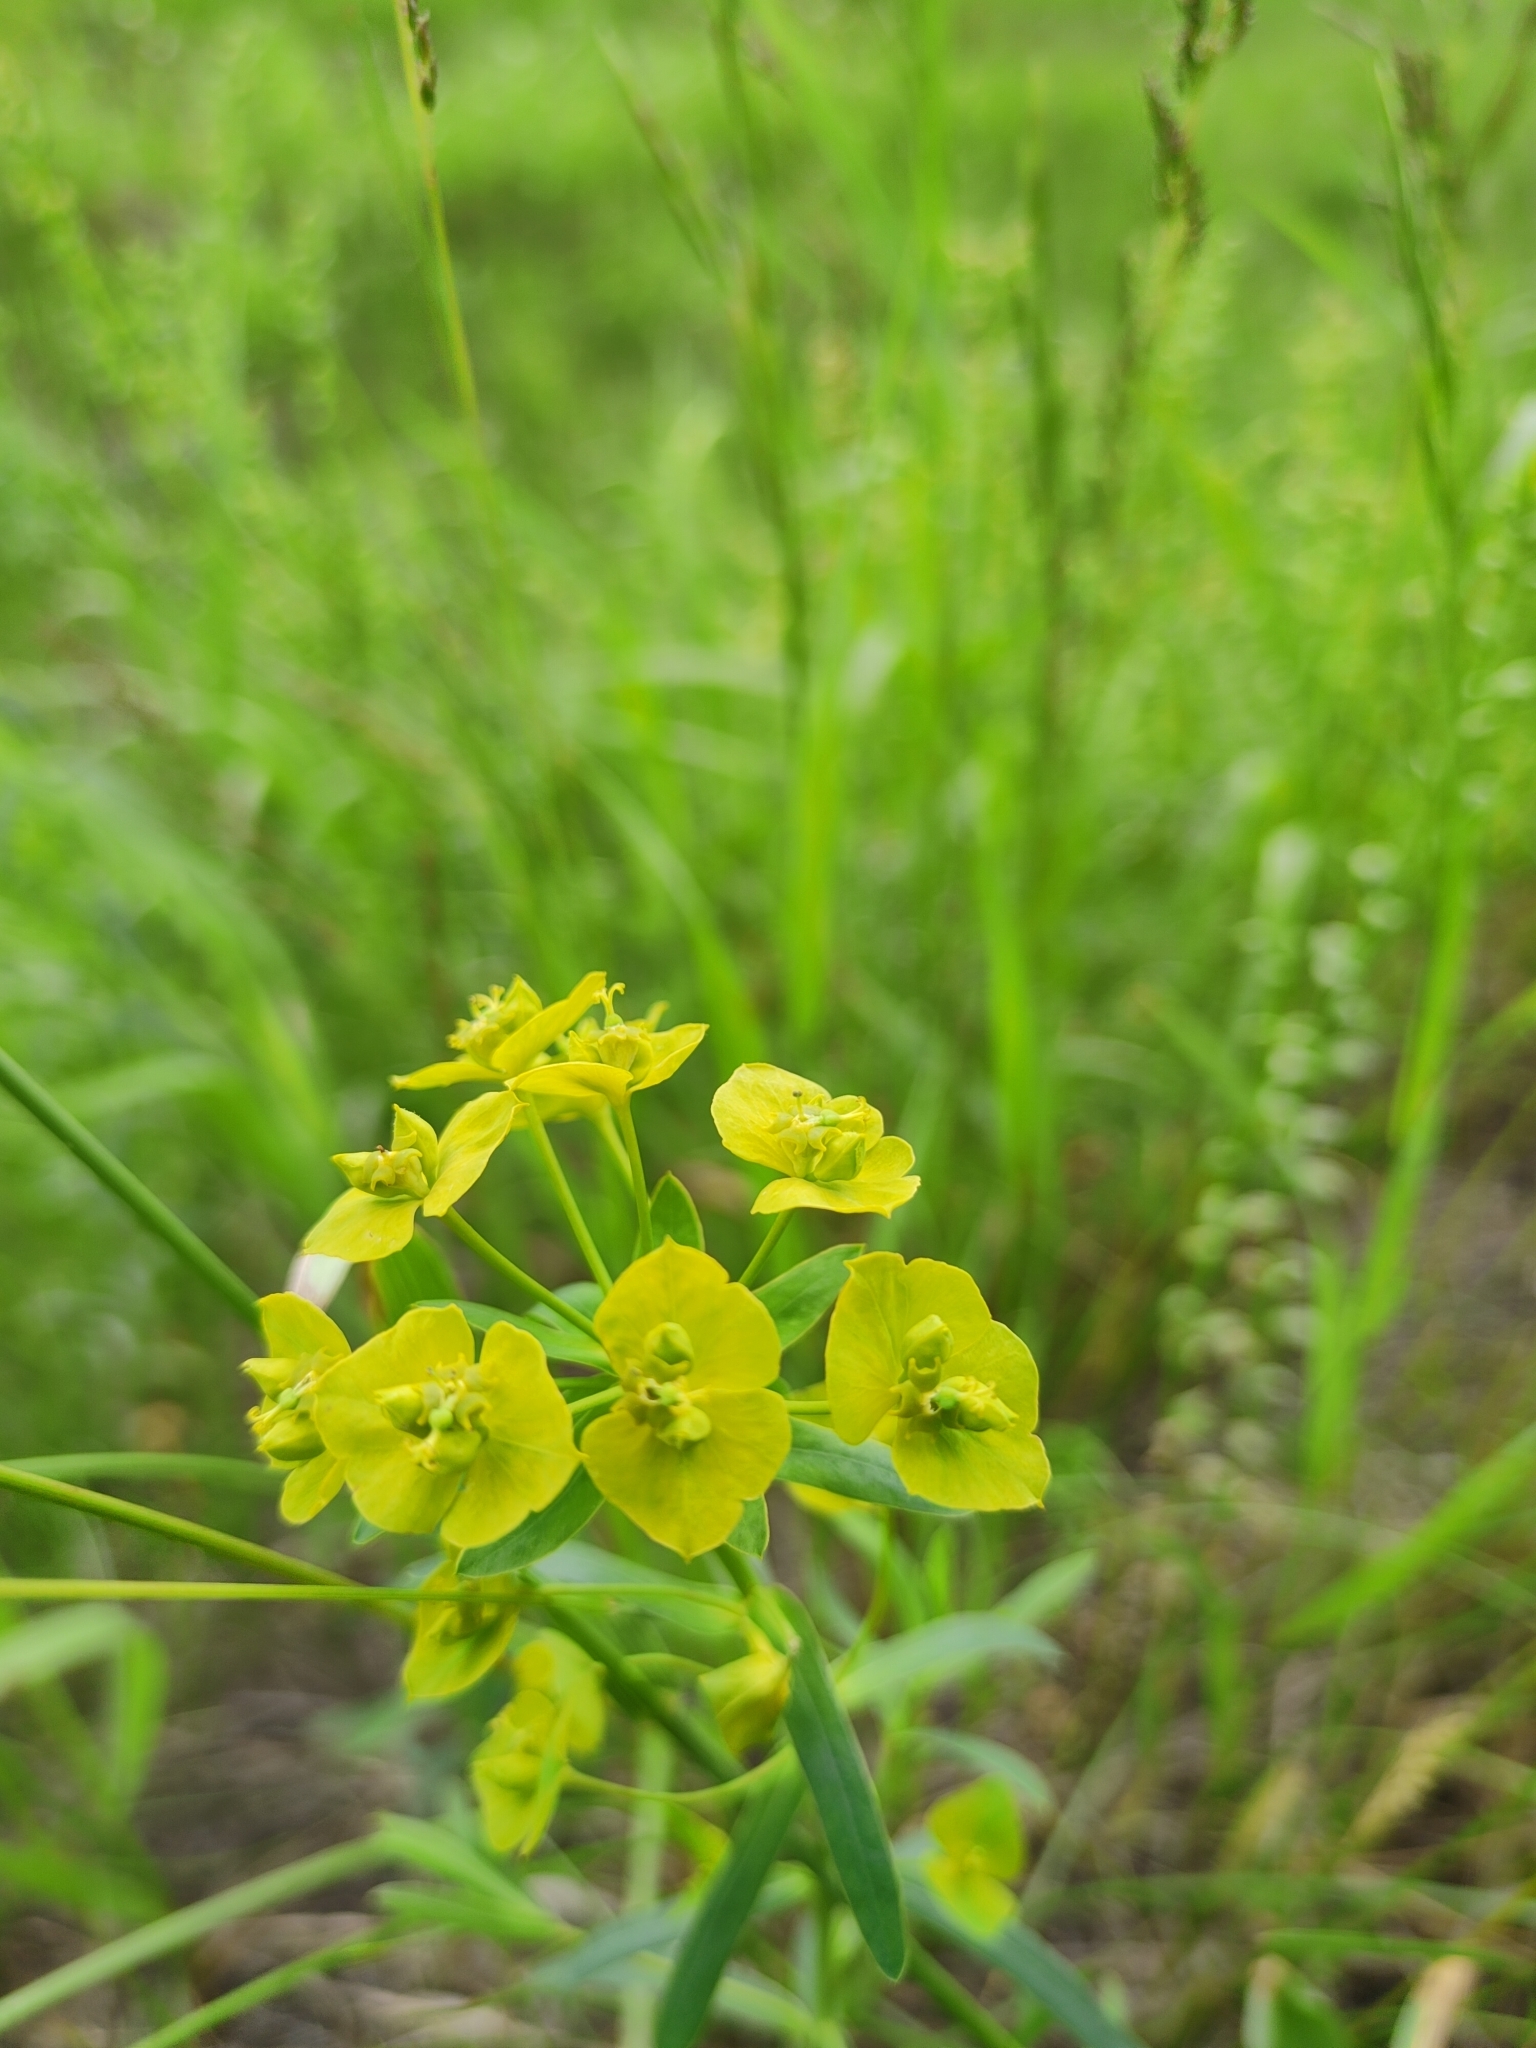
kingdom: Plantae
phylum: Tracheophyta
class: Magnoliopsida
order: Malpighiales
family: Euphorbiaceae
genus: Euphorbia
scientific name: Euphorbia virgata
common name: Leafy spurge
